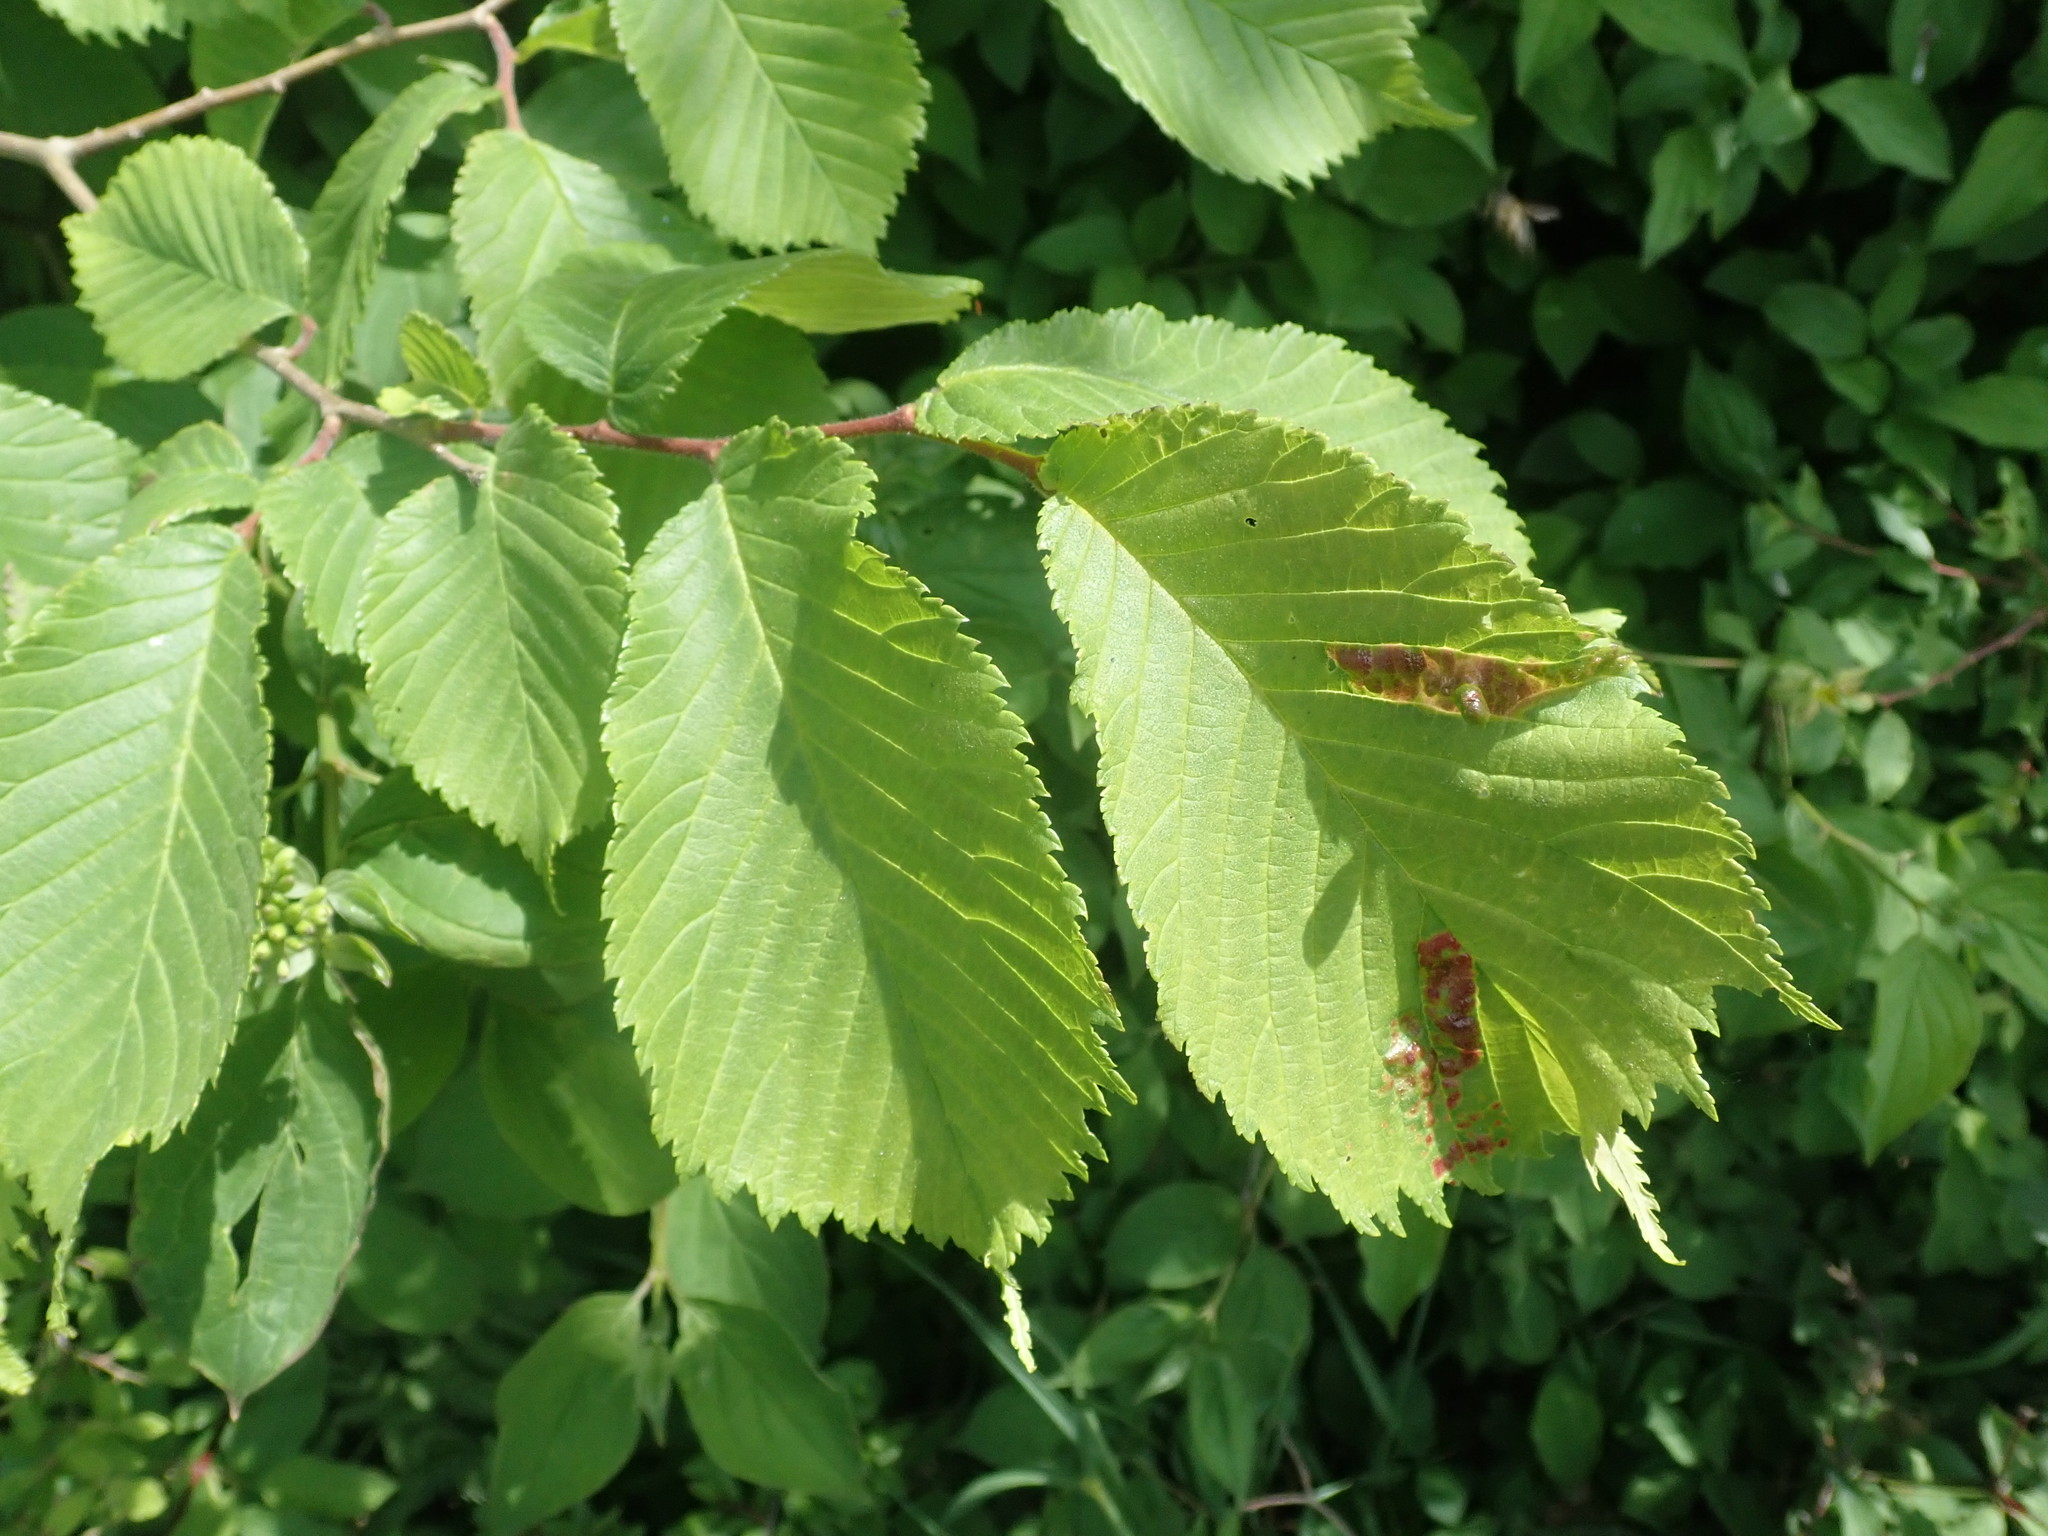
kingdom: Animalia
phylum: Arthropoda
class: Insecta
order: Hemiptera
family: Aphididae
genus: Tetraneura
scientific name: Tetraneura ulmi
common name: Aphid
